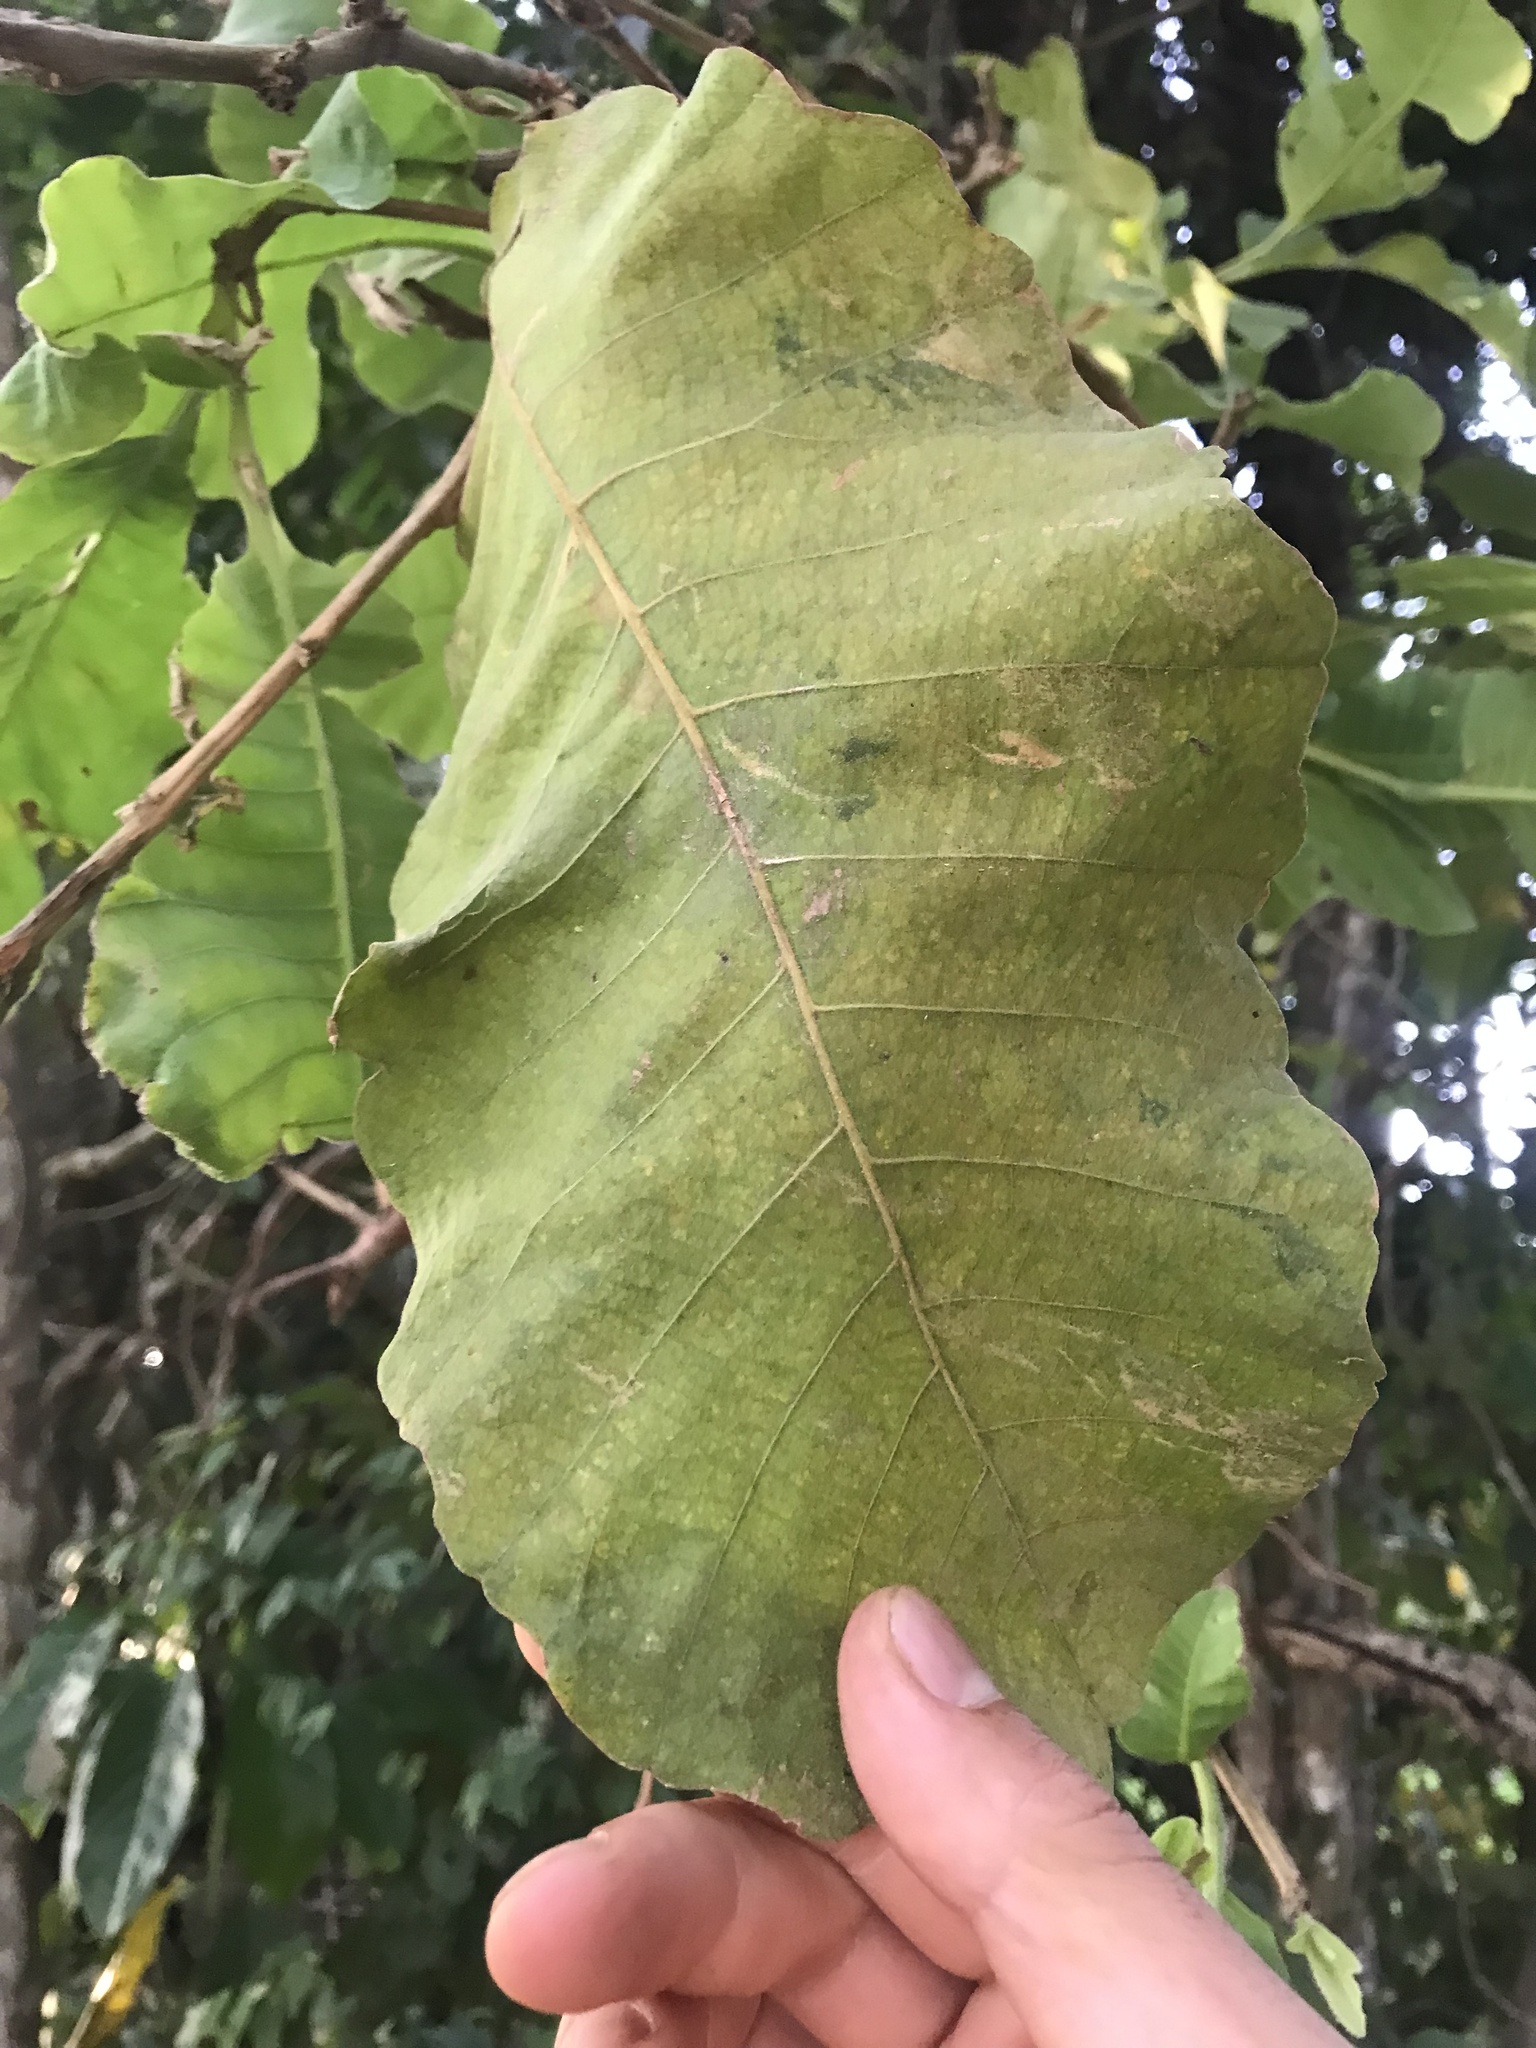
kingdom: Plantae
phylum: Tracheophyta
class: Magnoliopsida
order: Dilleniales
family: Dilleniaceae
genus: Curatella
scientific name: Curatella americana
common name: Sandpaper tree
